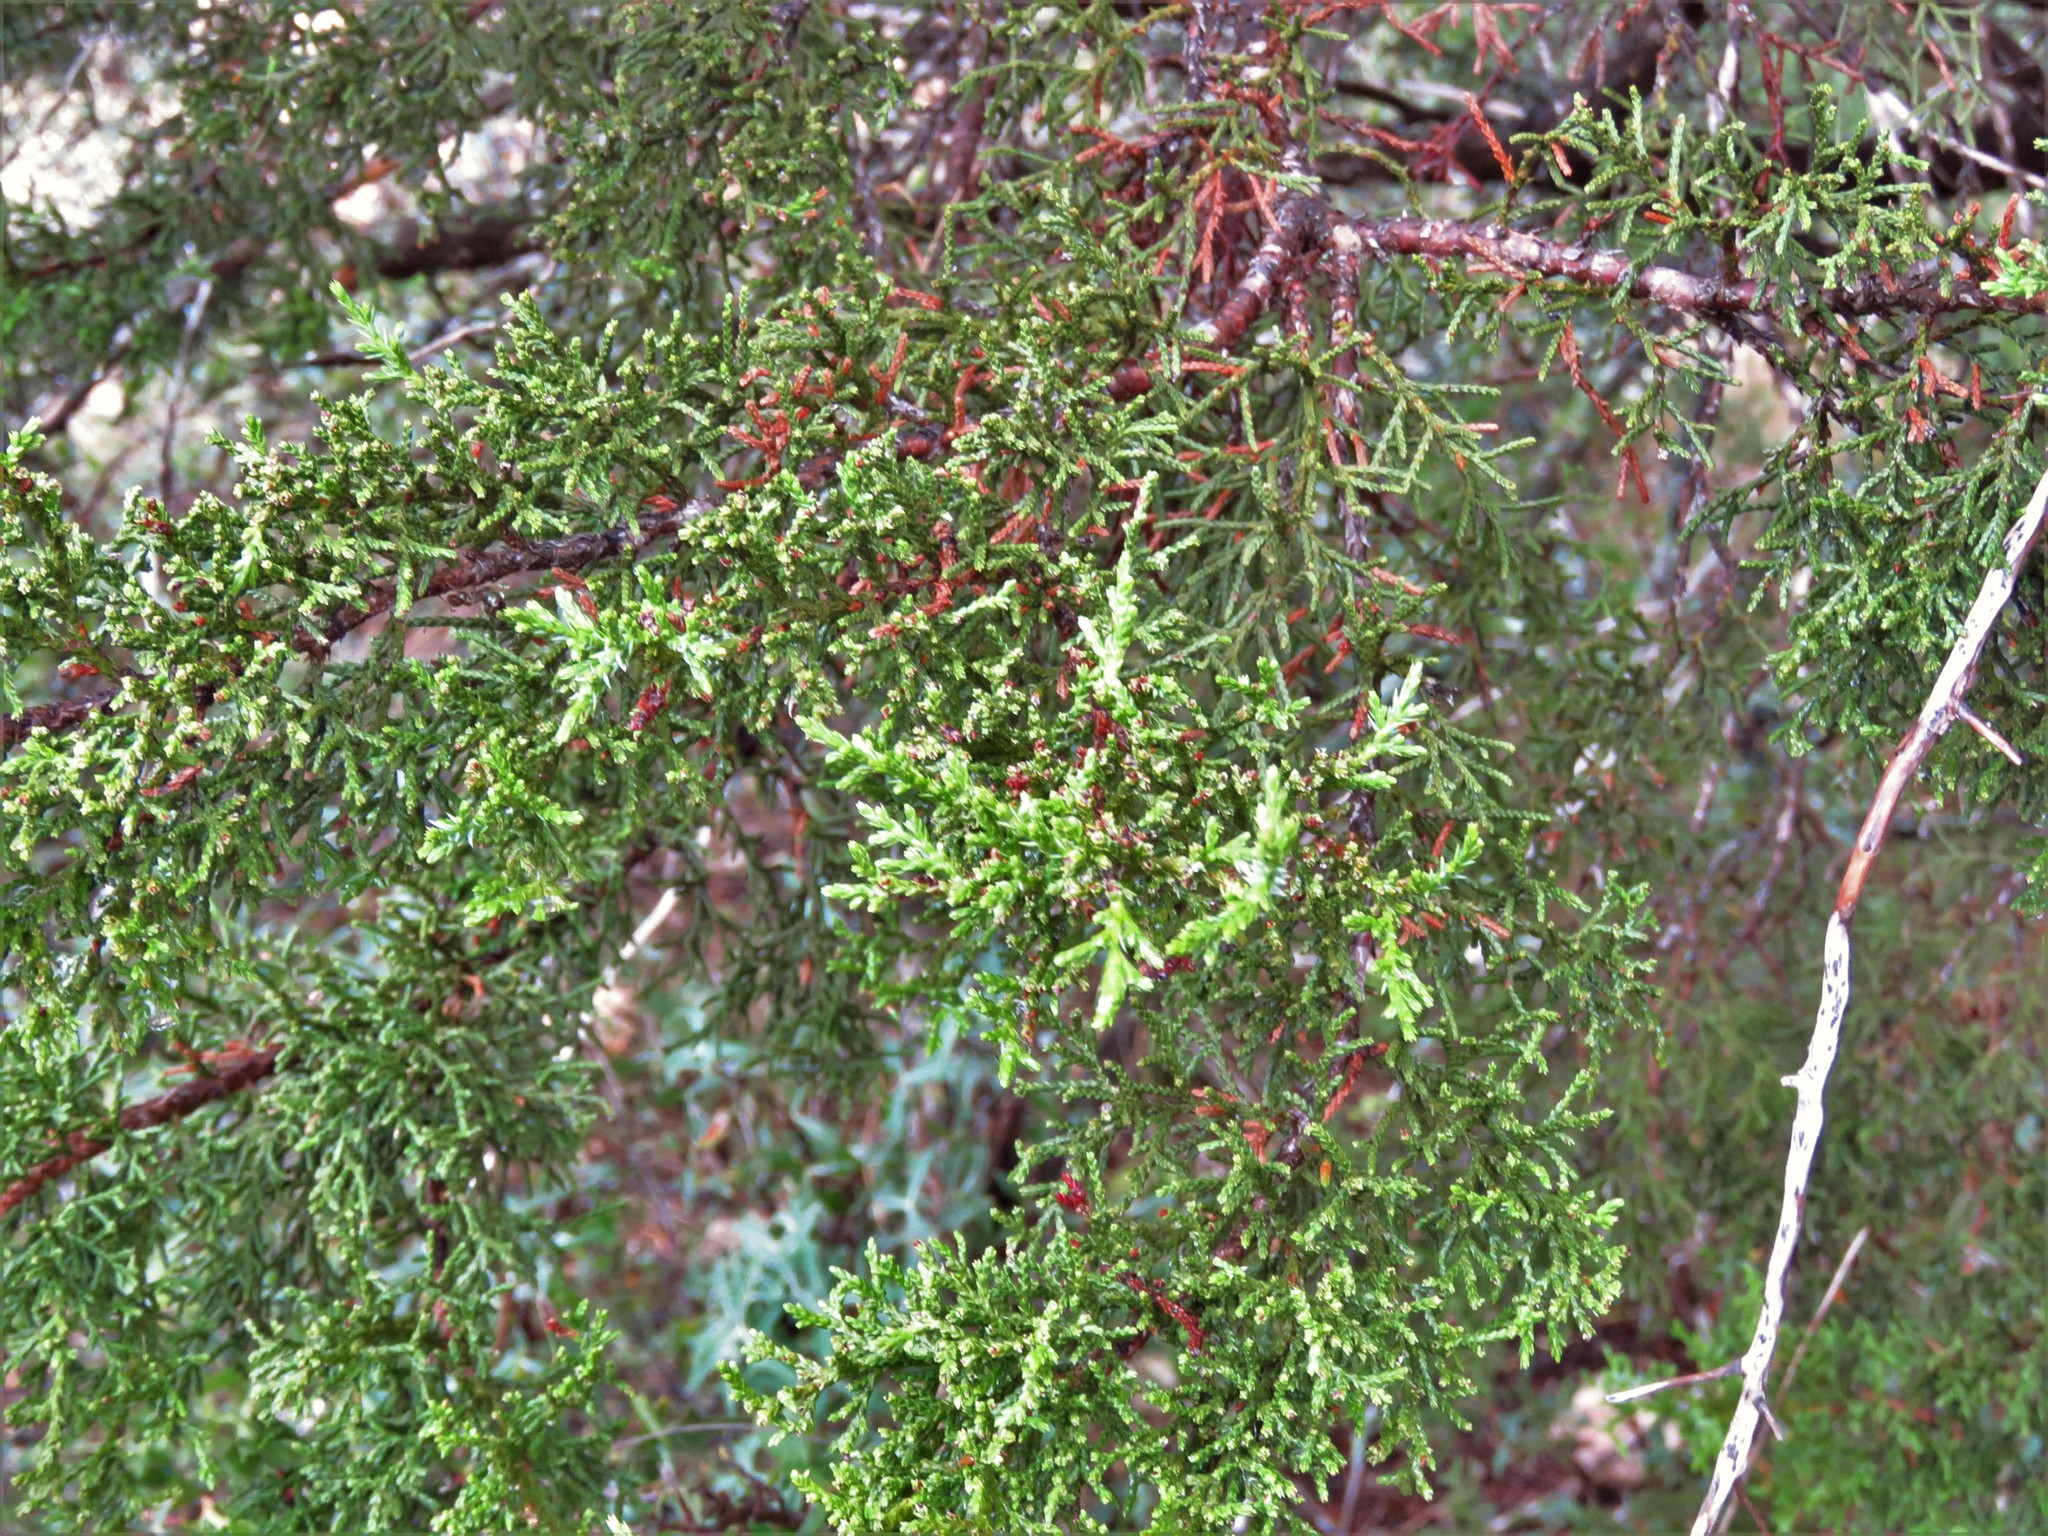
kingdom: Plantae
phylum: Tracheophyta
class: Pinopsida
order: Pinales
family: Cupressaceae
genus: Juniperus
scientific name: Juniperus ashei
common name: Mexican juniper
